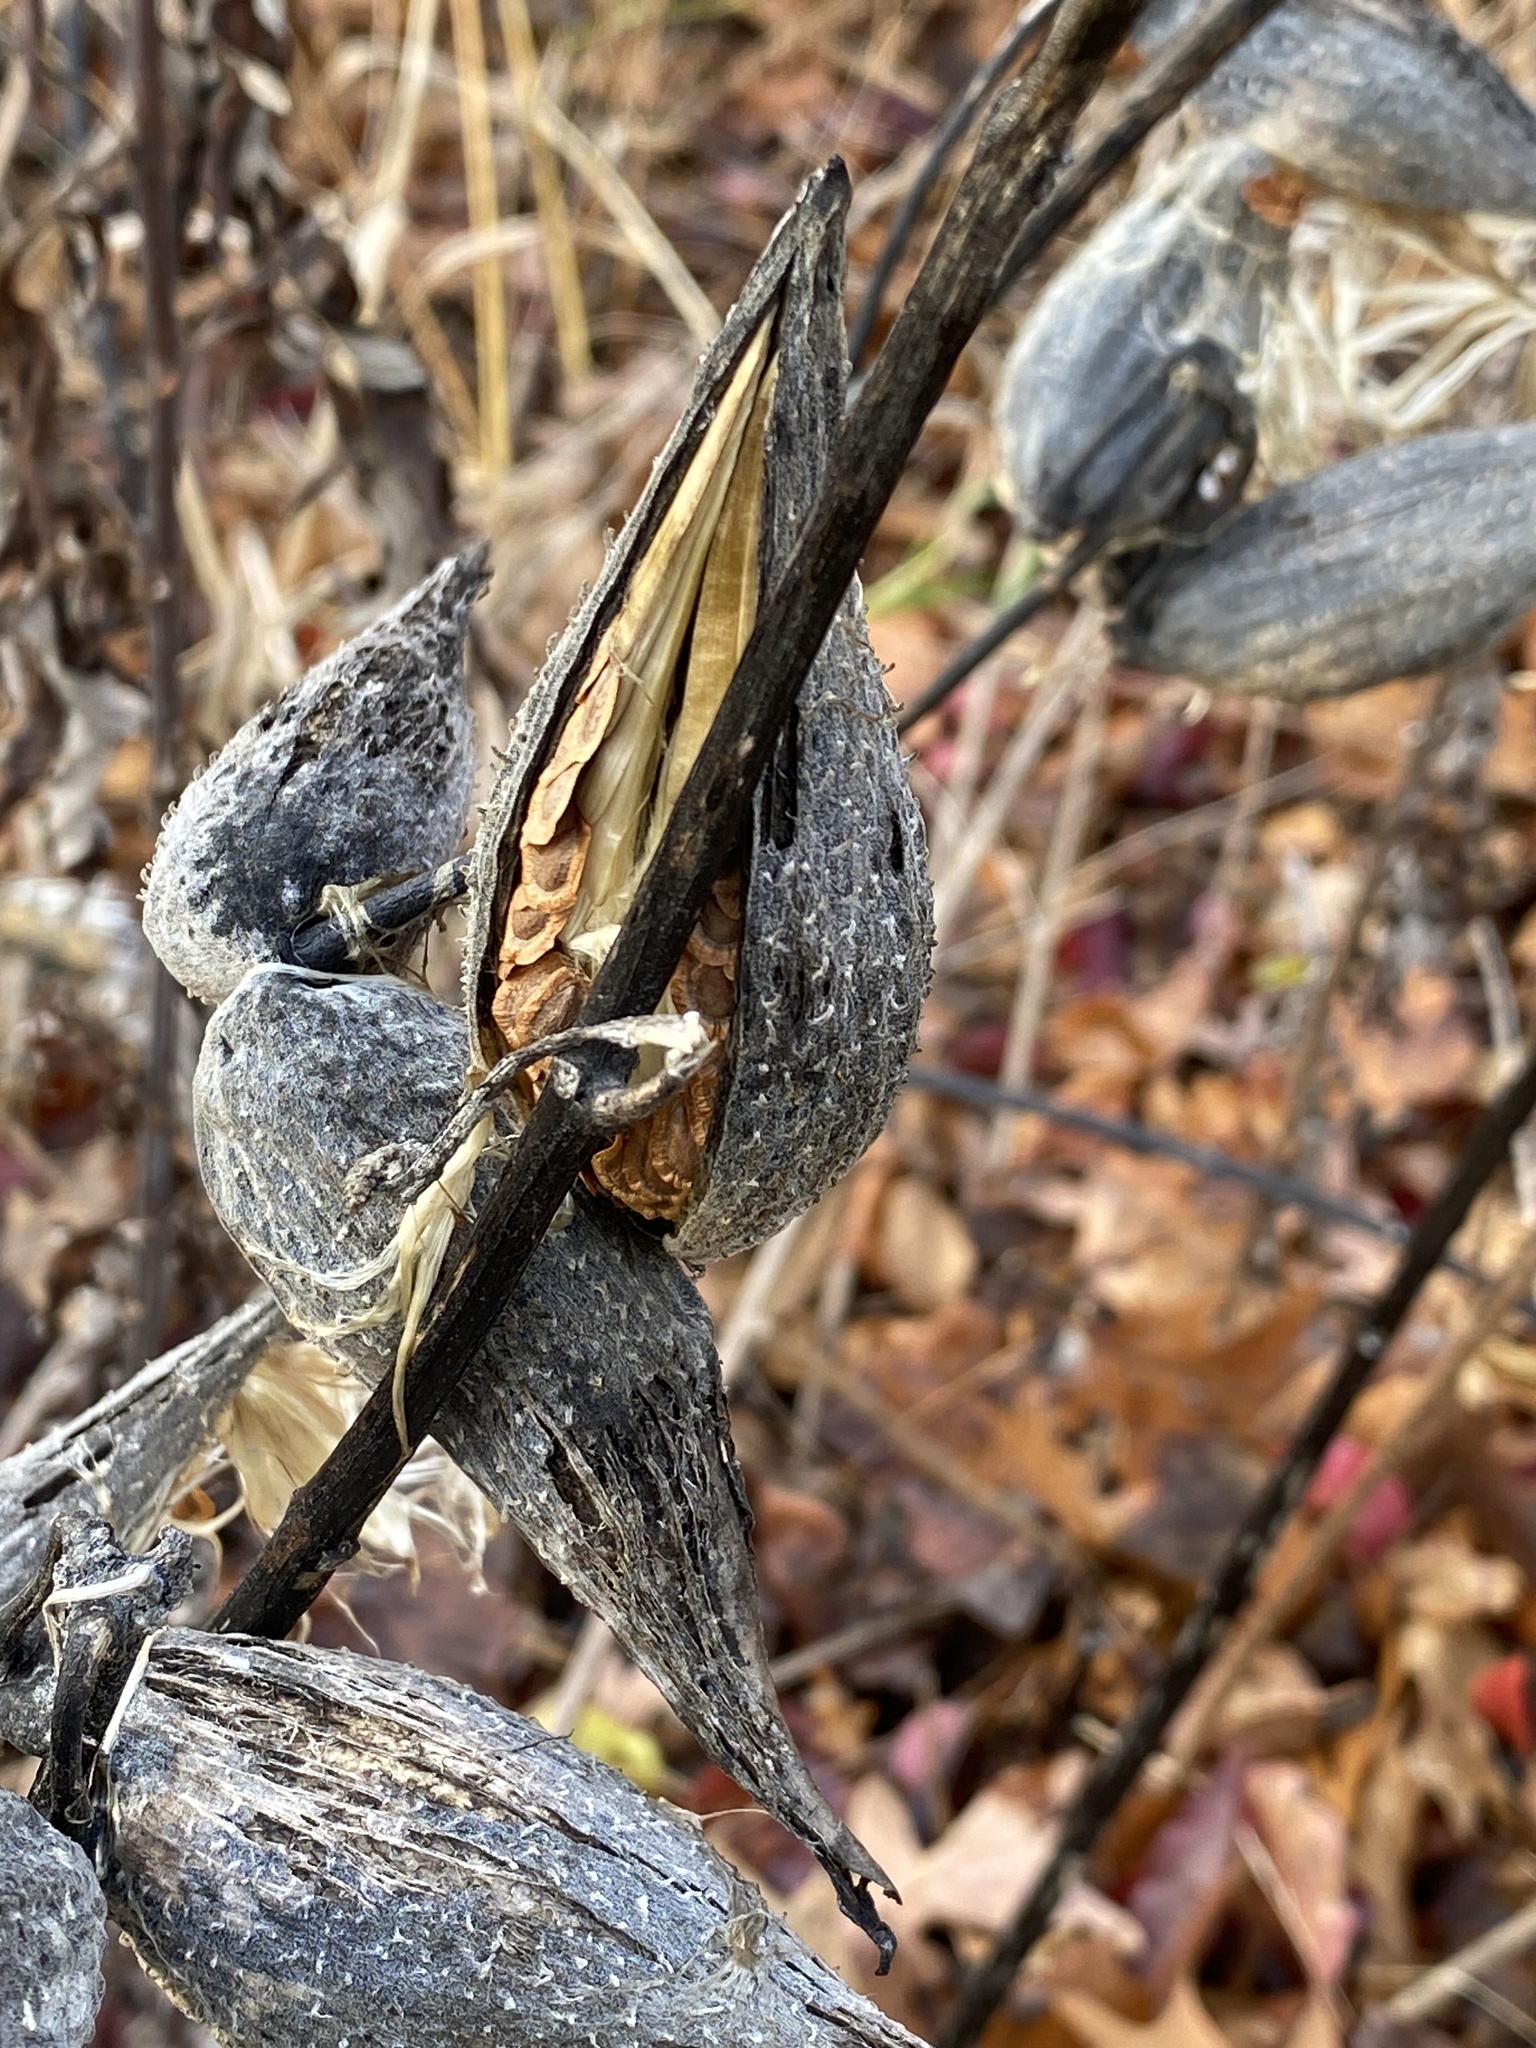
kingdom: Plantae
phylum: Tracheophyta
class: Magnoliopsida
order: Gentianales
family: Apocynaceae
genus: Asclepias
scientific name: Asclepias syriaca
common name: Common milkweed
